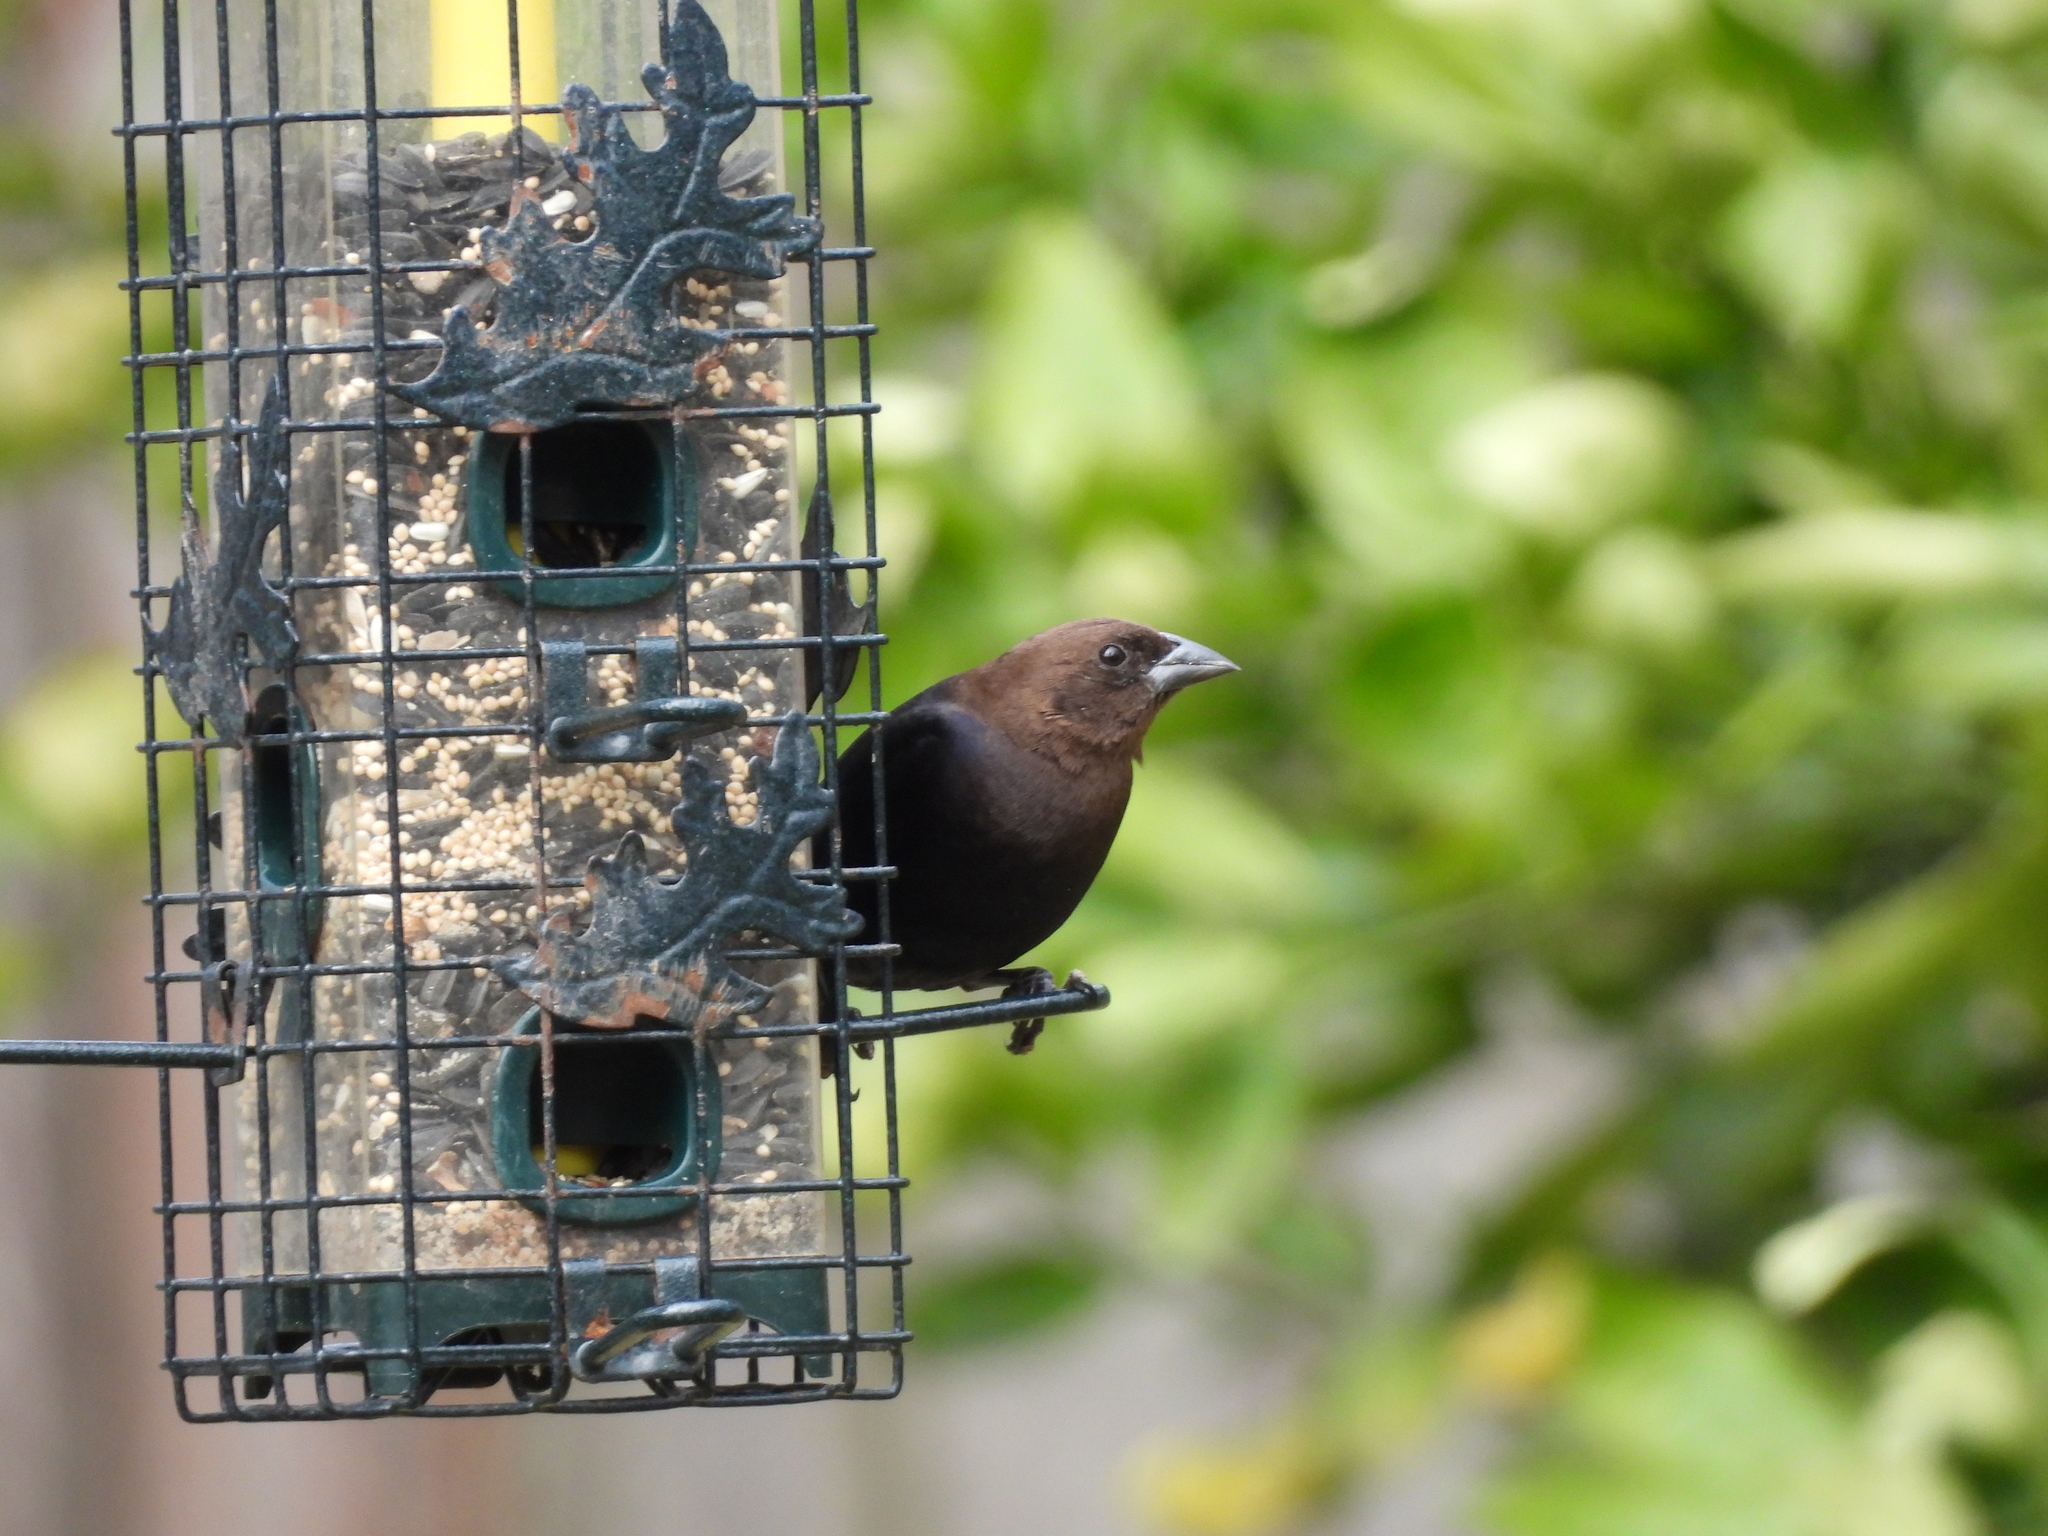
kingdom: Animalia
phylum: Chordata
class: Aves
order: Passeriformes
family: Icteridae
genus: Molothrus
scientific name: Molothrus ater
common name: Brown-headed cowbird
